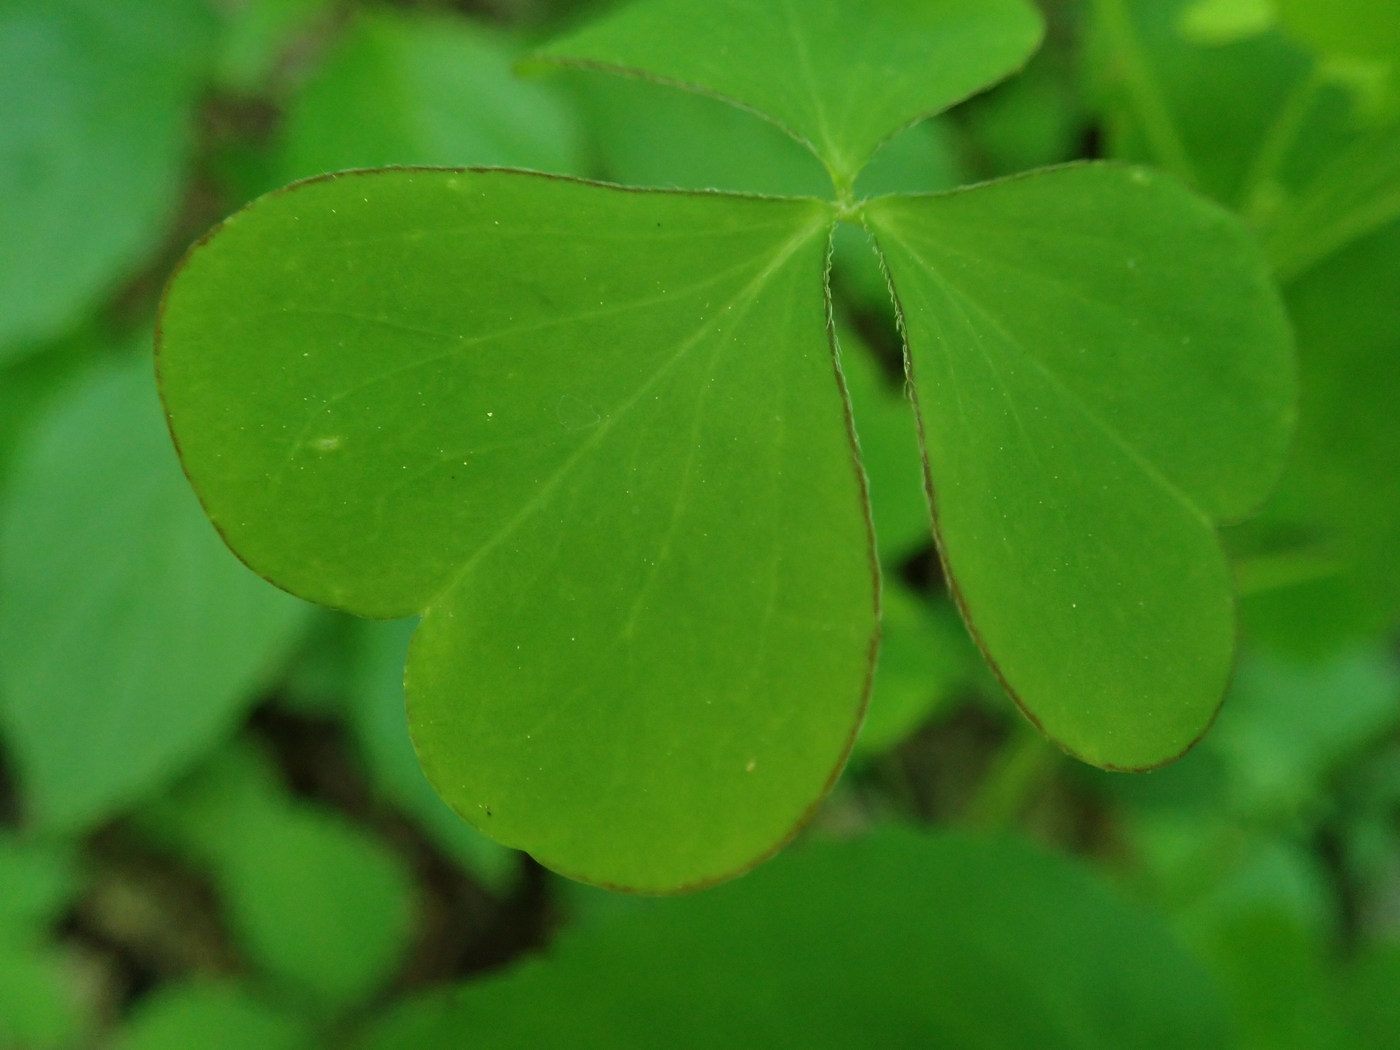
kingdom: Plantae
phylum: Tracheophyta
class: Magnoliopsida
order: Oxalidales
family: Oxalidaceae
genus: Oxalis
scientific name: Oxalis grandis
